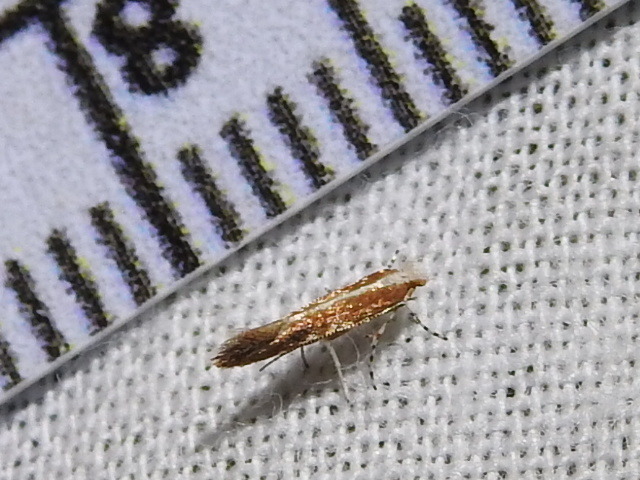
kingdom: Animalia
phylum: Arthropoda
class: Insecta
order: Lepidoptera
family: Gracillariidae
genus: Cameraria
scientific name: Cameraria quercivorella
